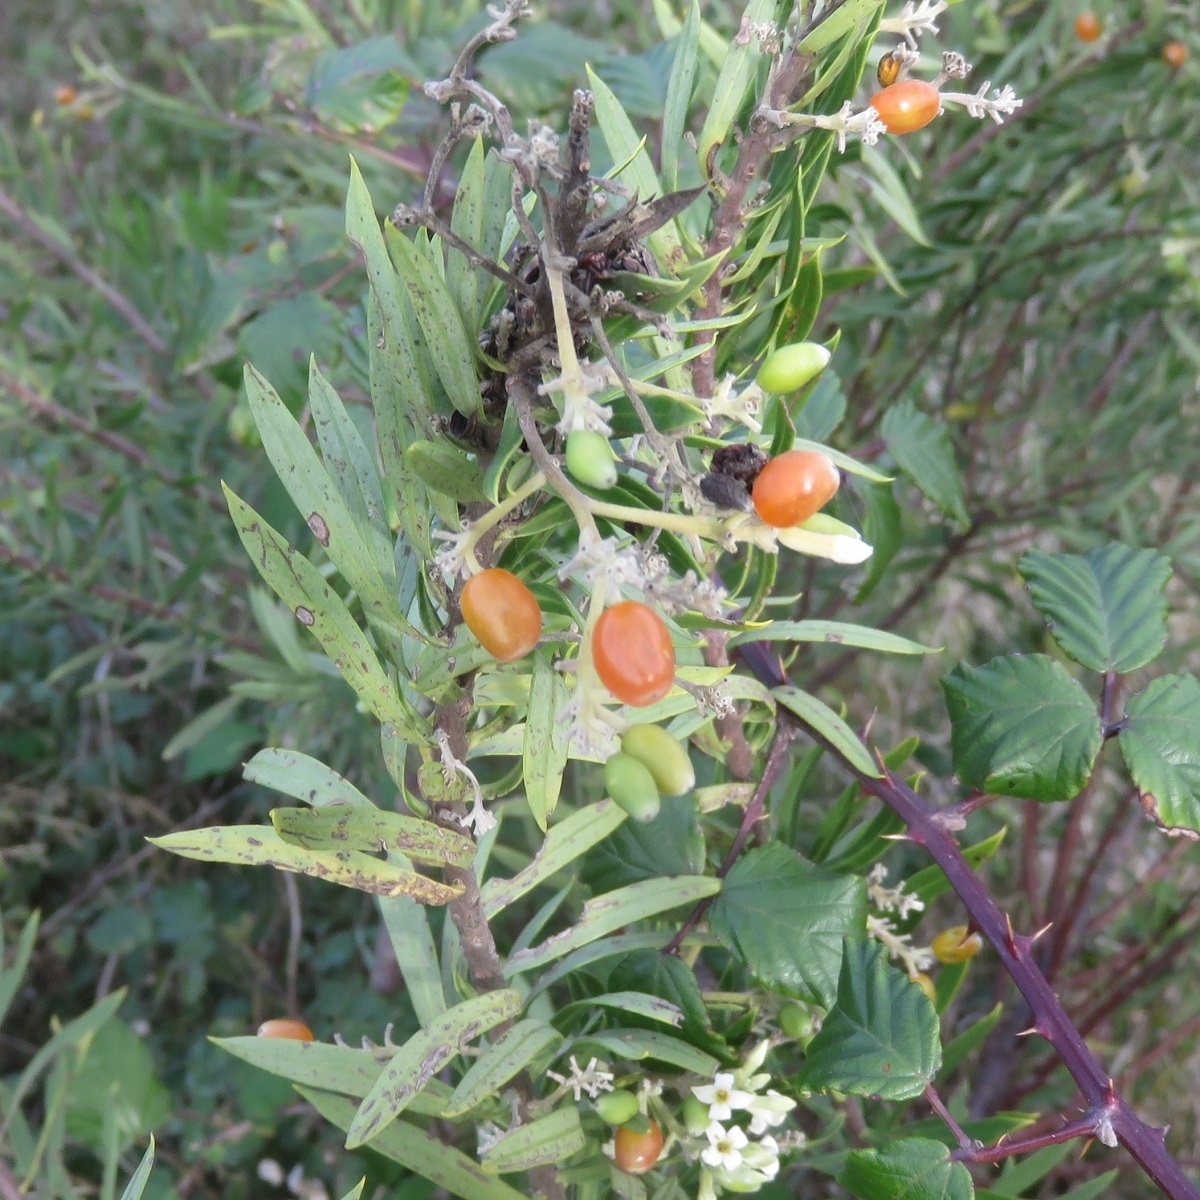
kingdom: Plantae
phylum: Tracheophyta
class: Magnoliopsida
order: Malvales
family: Thymelaeaceae
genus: Daphne
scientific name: Daphne gnidium
